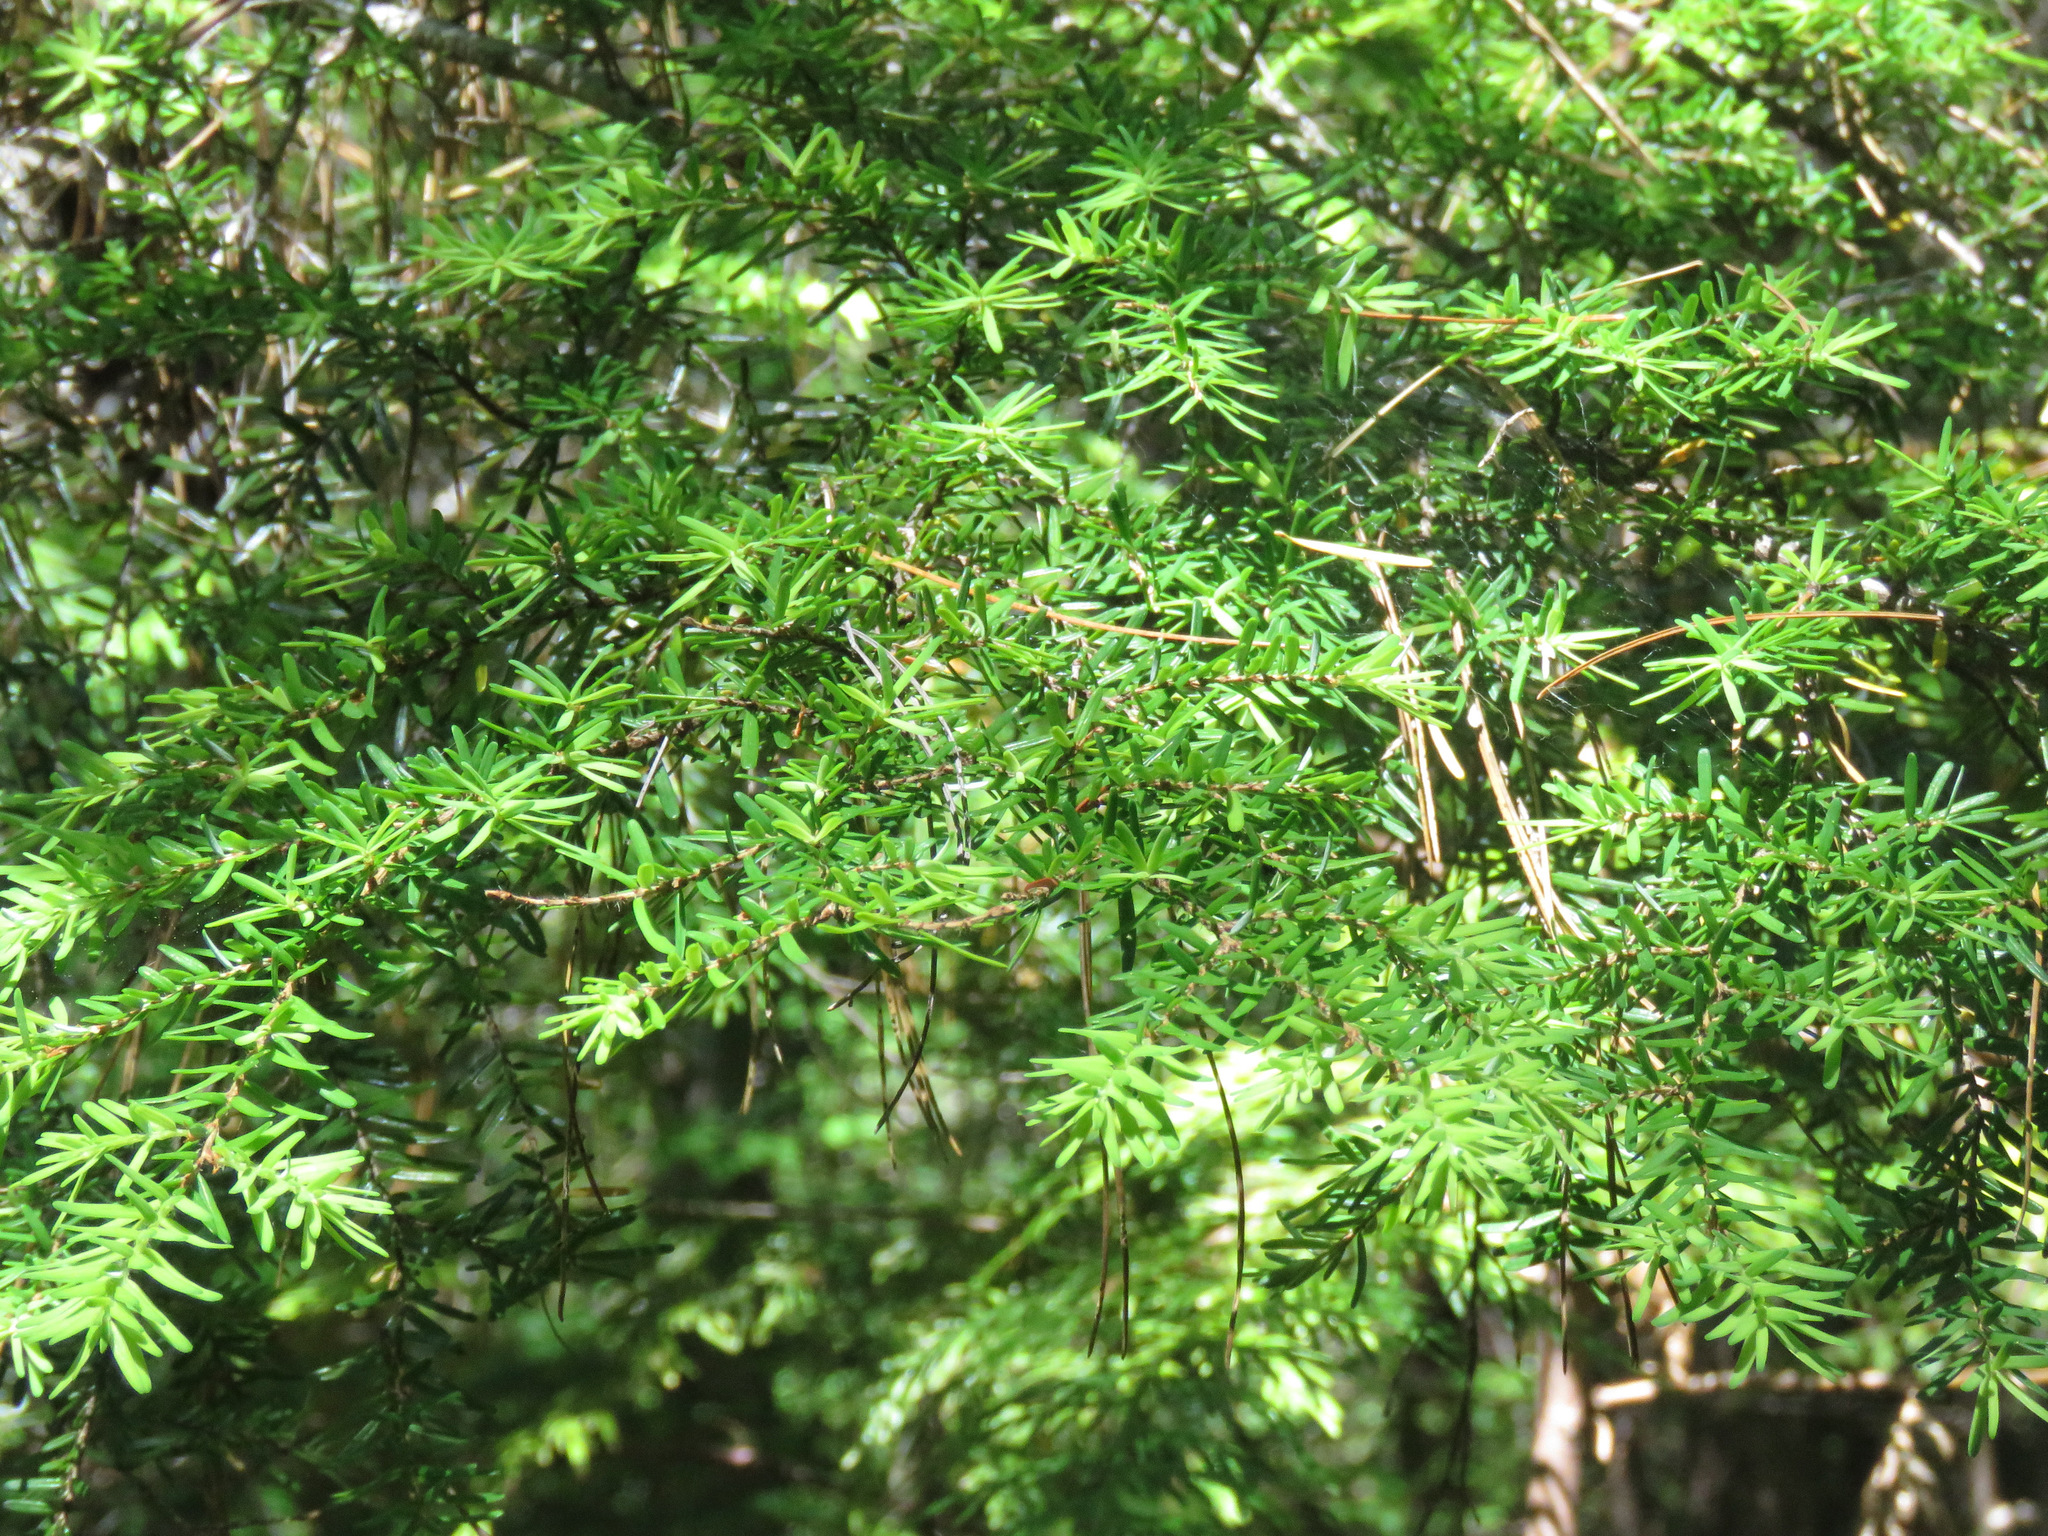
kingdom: Plantae
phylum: Tracheophyta
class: Pinopsida
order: Pinales
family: Pinaceae
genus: Tsuga
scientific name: Tsuga heterophylla
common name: Western hemlock
